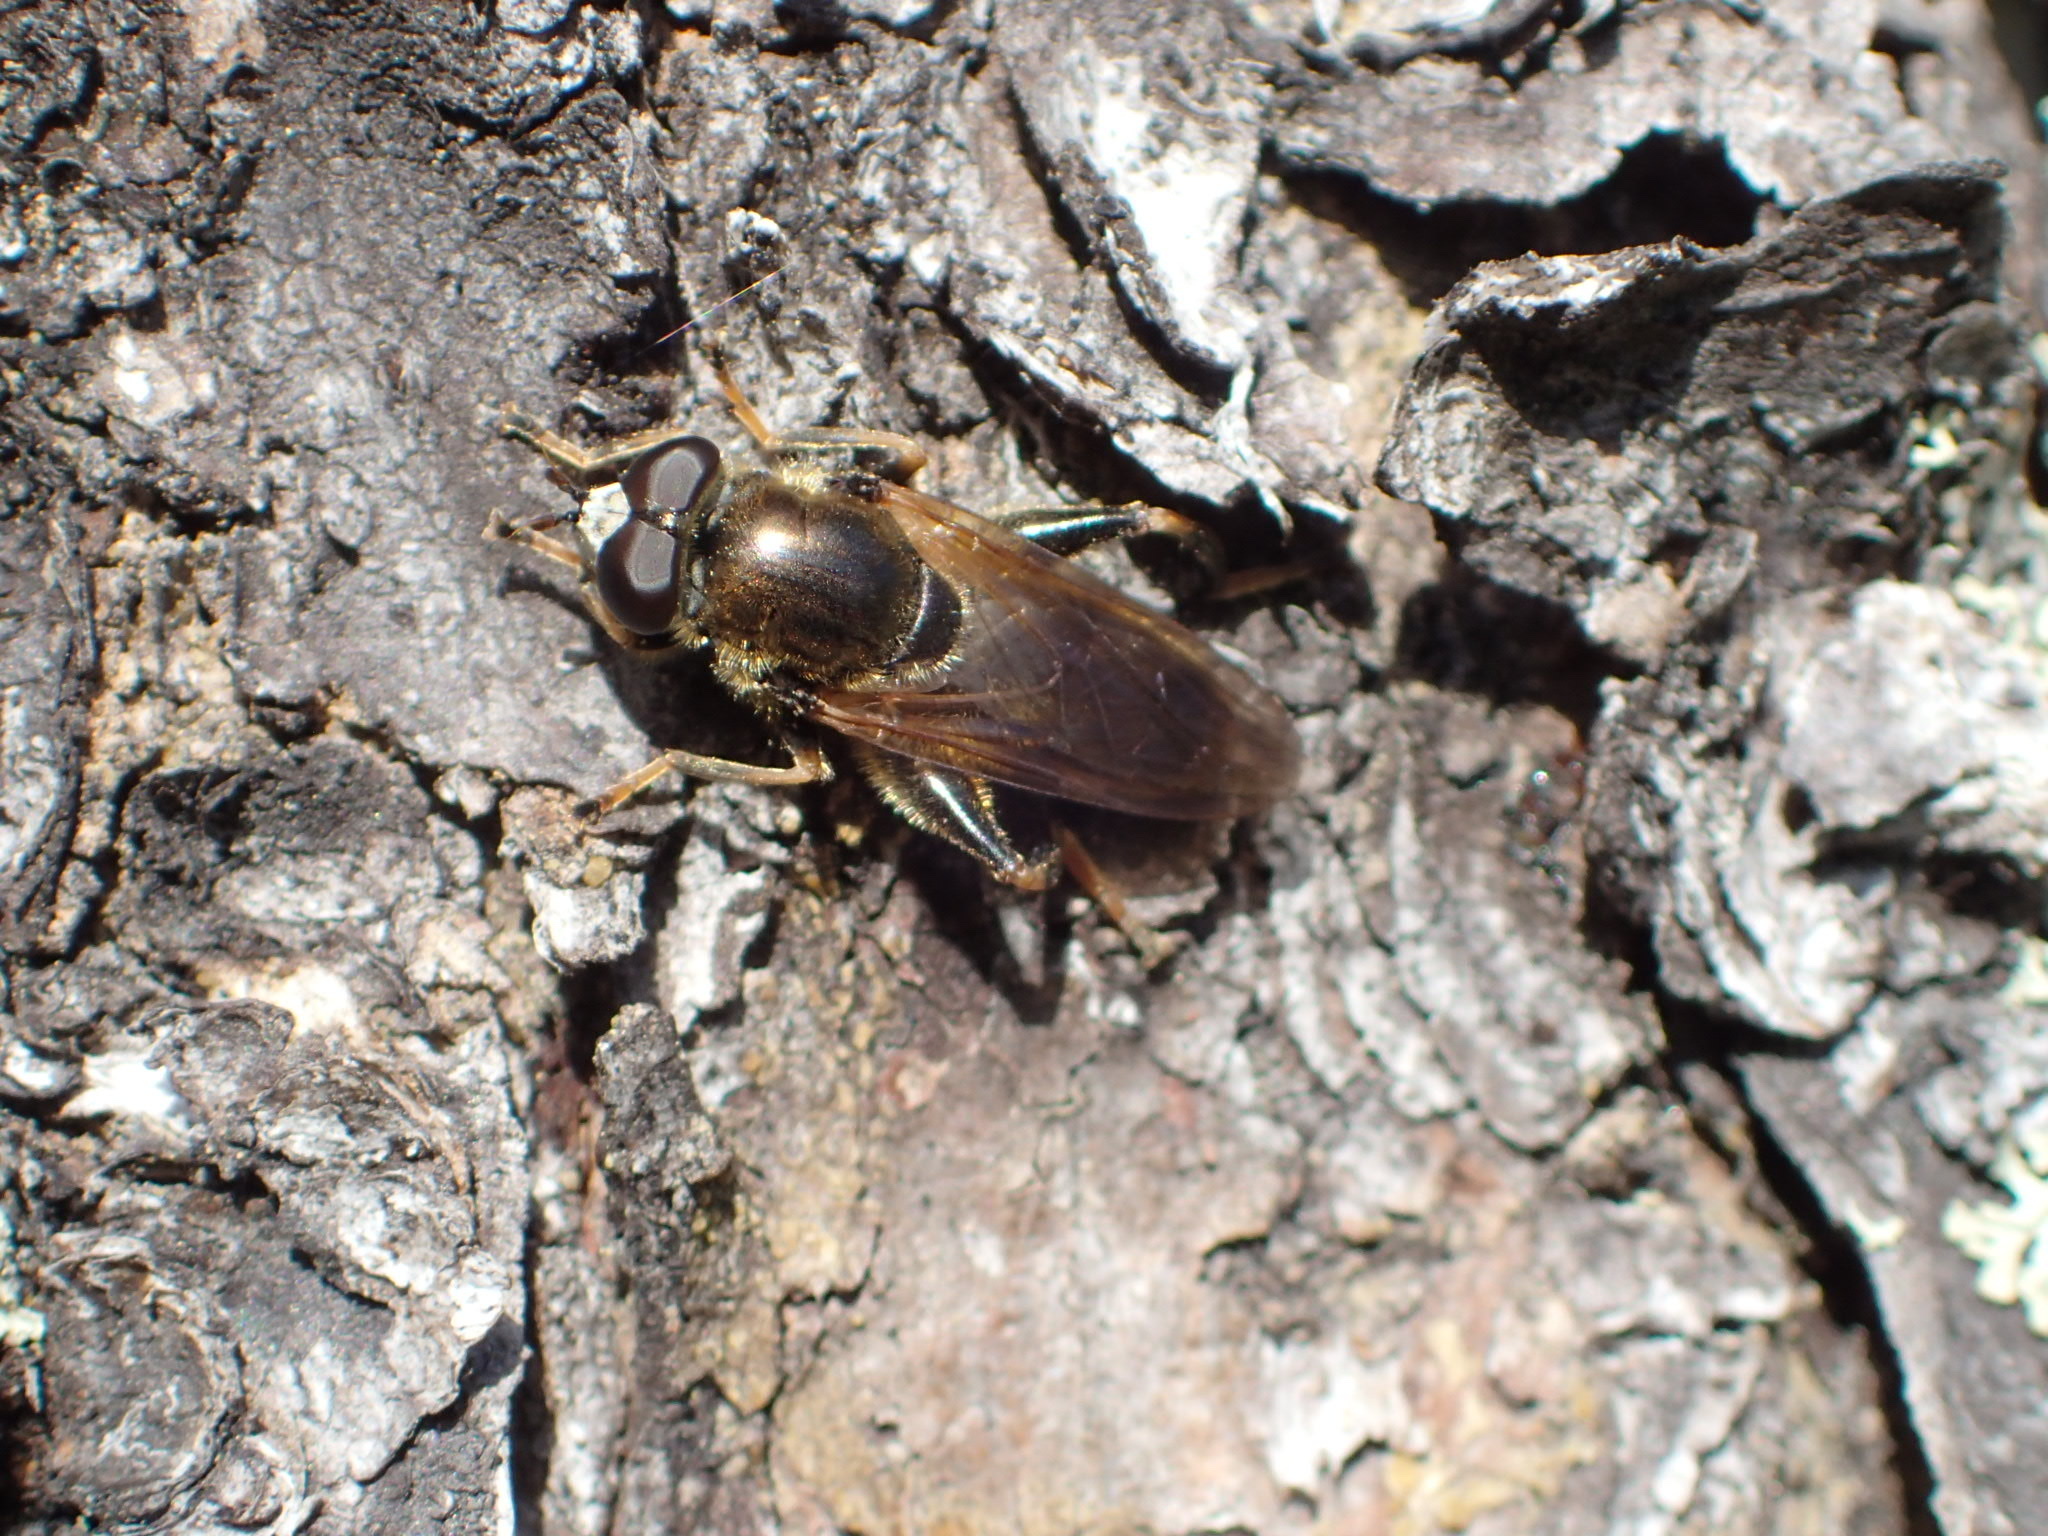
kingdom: Animalia
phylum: Arthropoda
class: Insecta
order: Diptera
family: Syrphidae
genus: Chalcosyrphus
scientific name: Chalcosyrphus inarmatus
